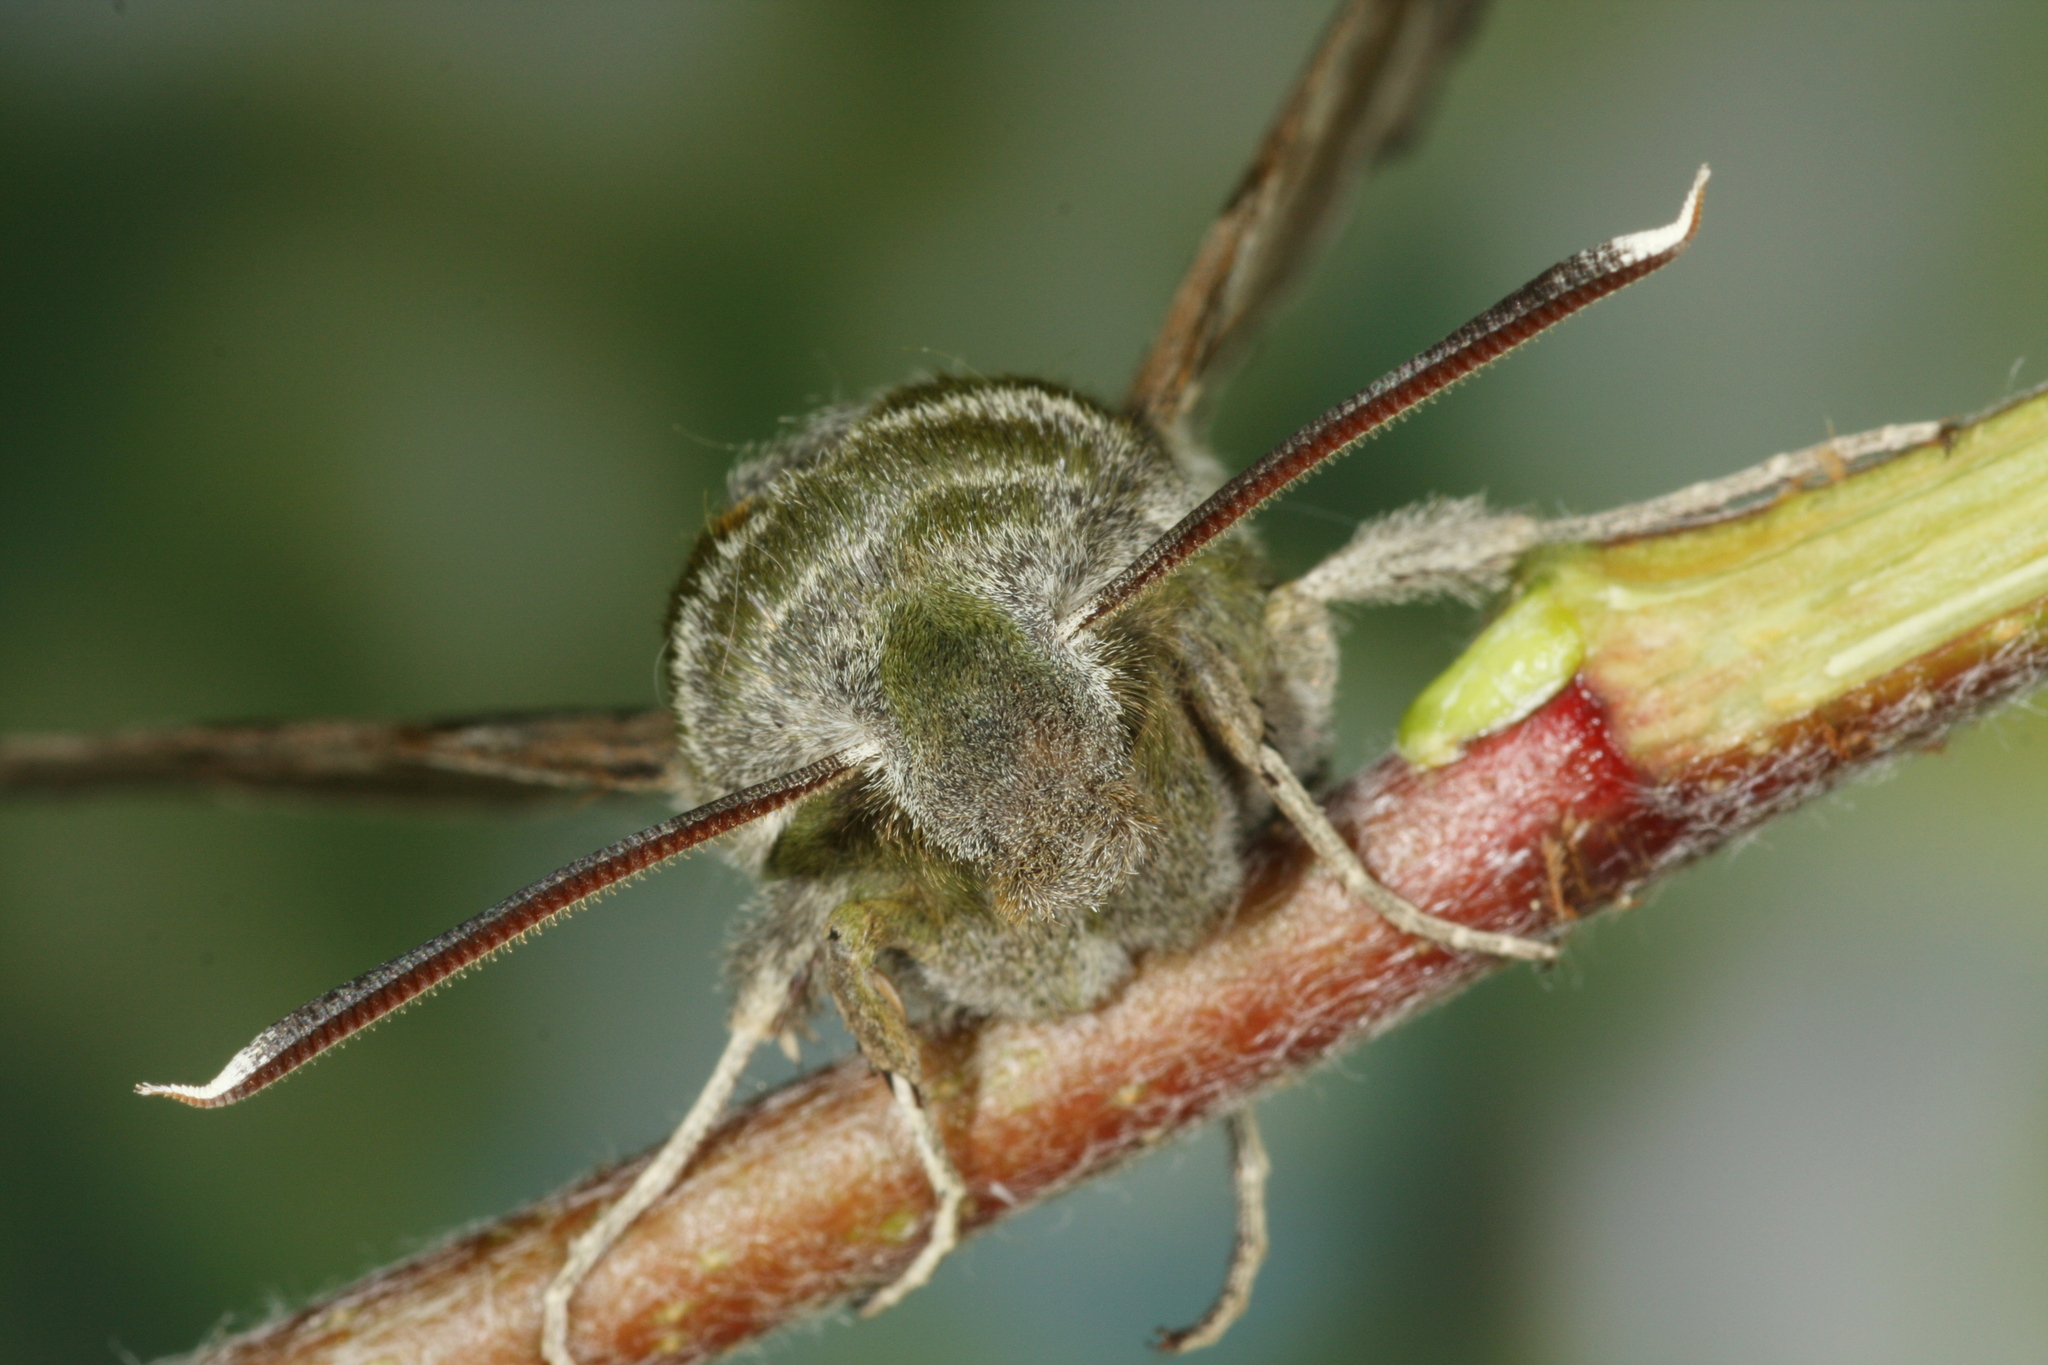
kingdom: Animalia
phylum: Arthropoda
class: Insecta
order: Lepidoptera
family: Sphingidae
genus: Proserpinus
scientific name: Proserpinus proserpina
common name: Willowherb hawkmoth
